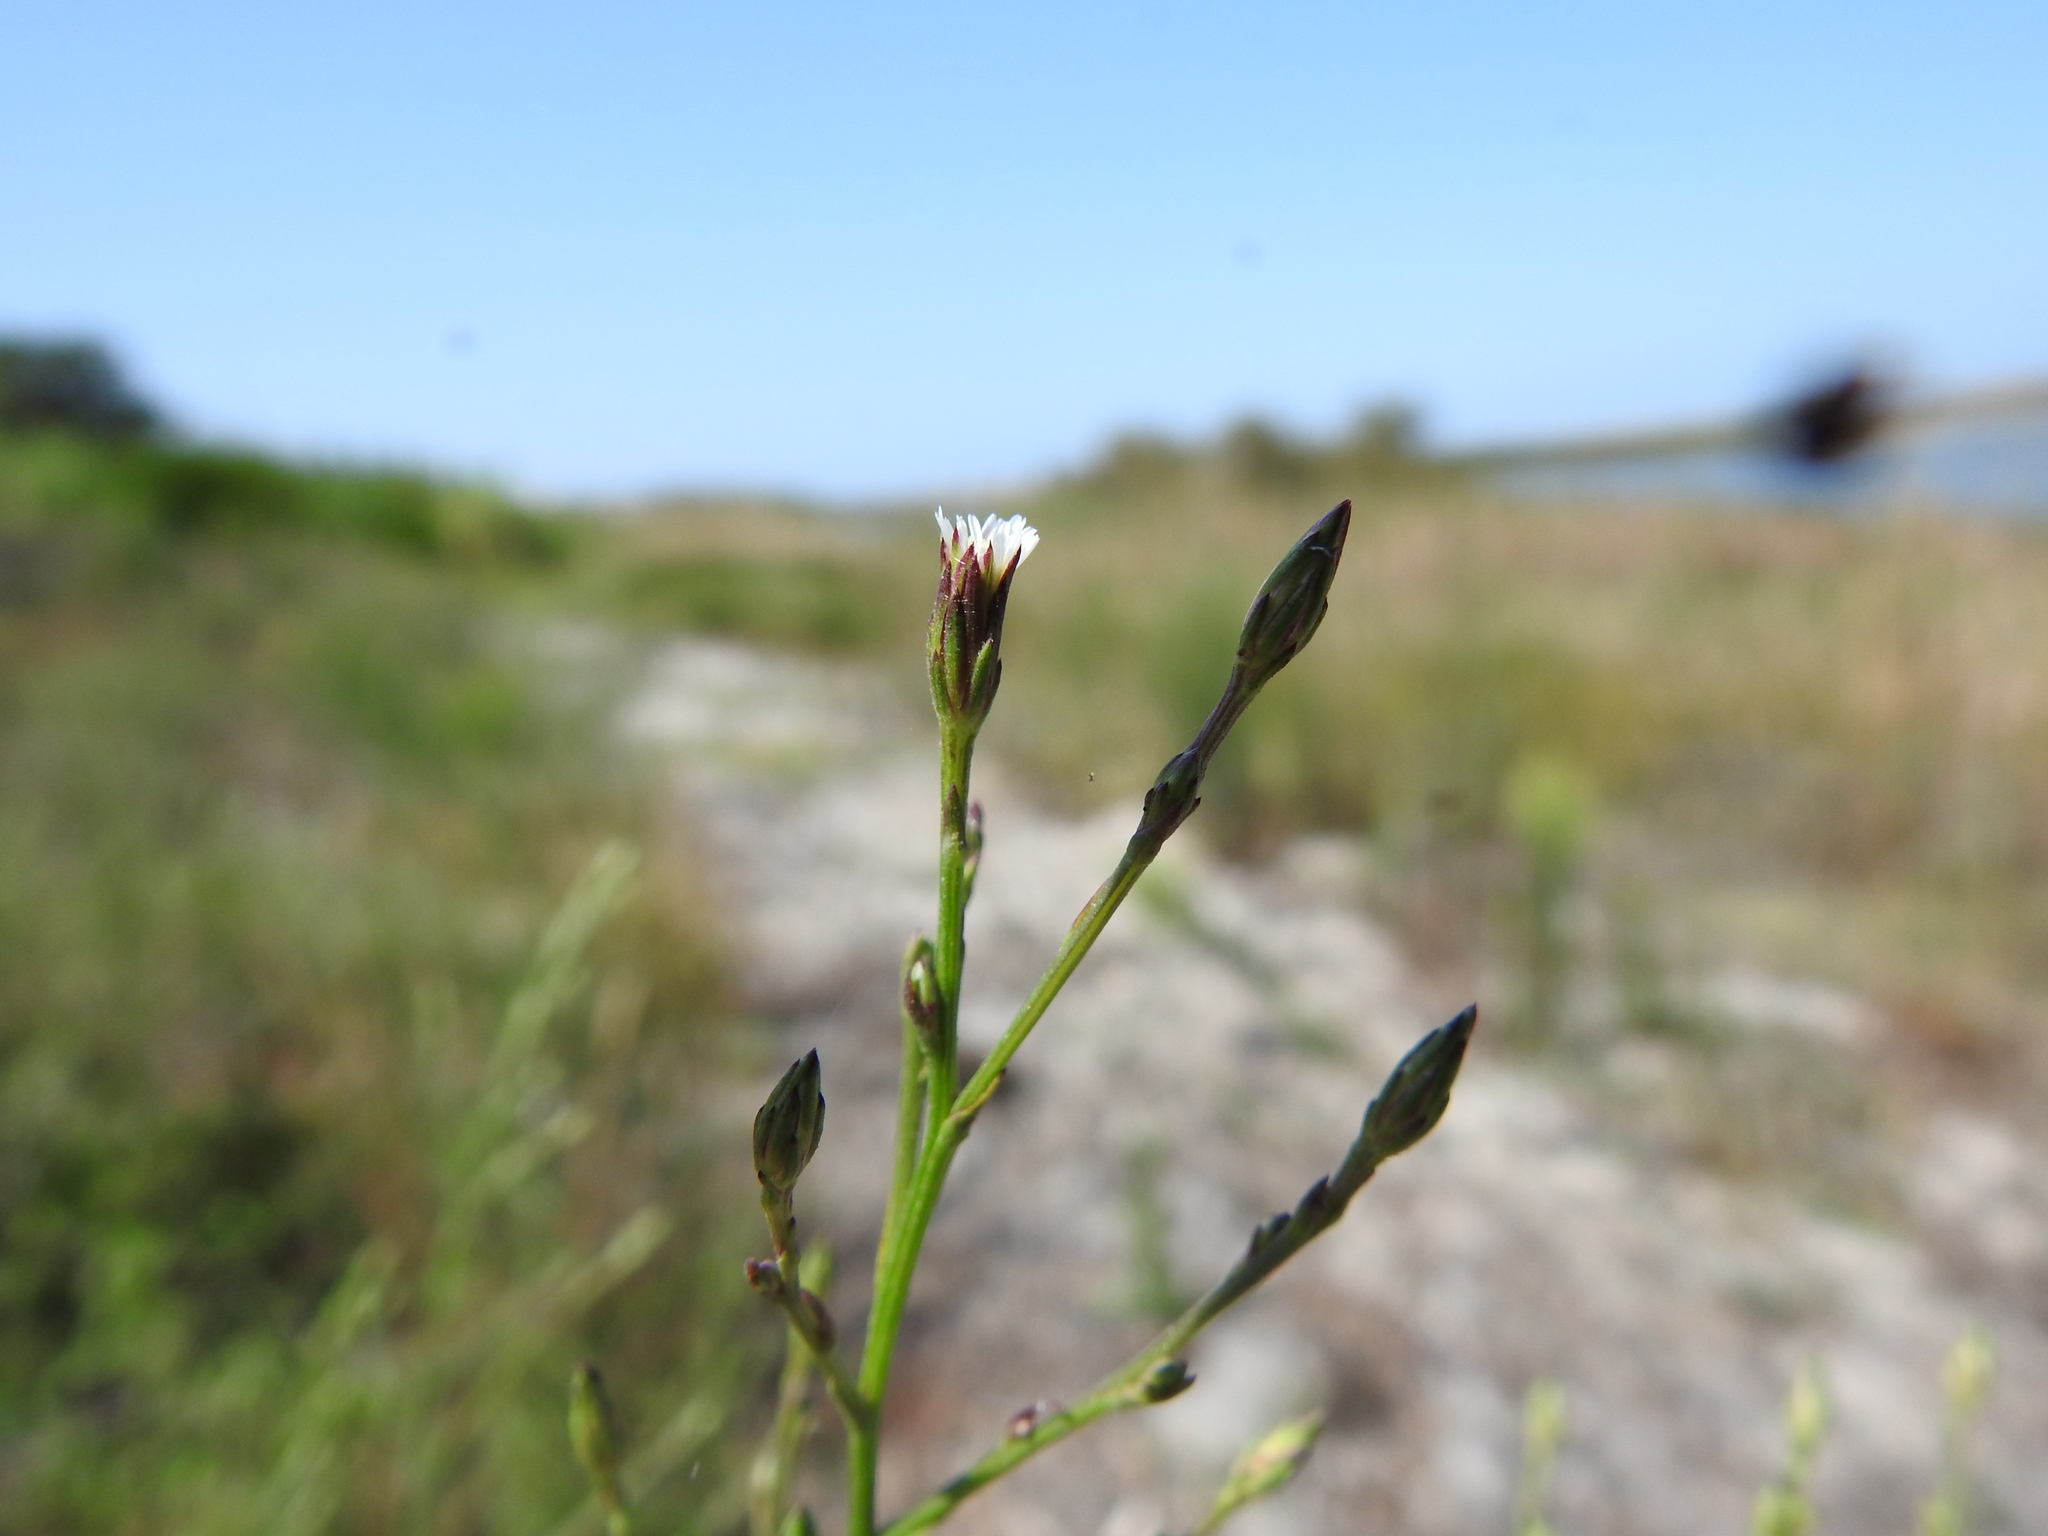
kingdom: Plantae
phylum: Tracheophyta
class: Magnoliopsida
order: Asterales
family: Asteraceae
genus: Symphyotrichum
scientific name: Symphyotrichum squamatum
